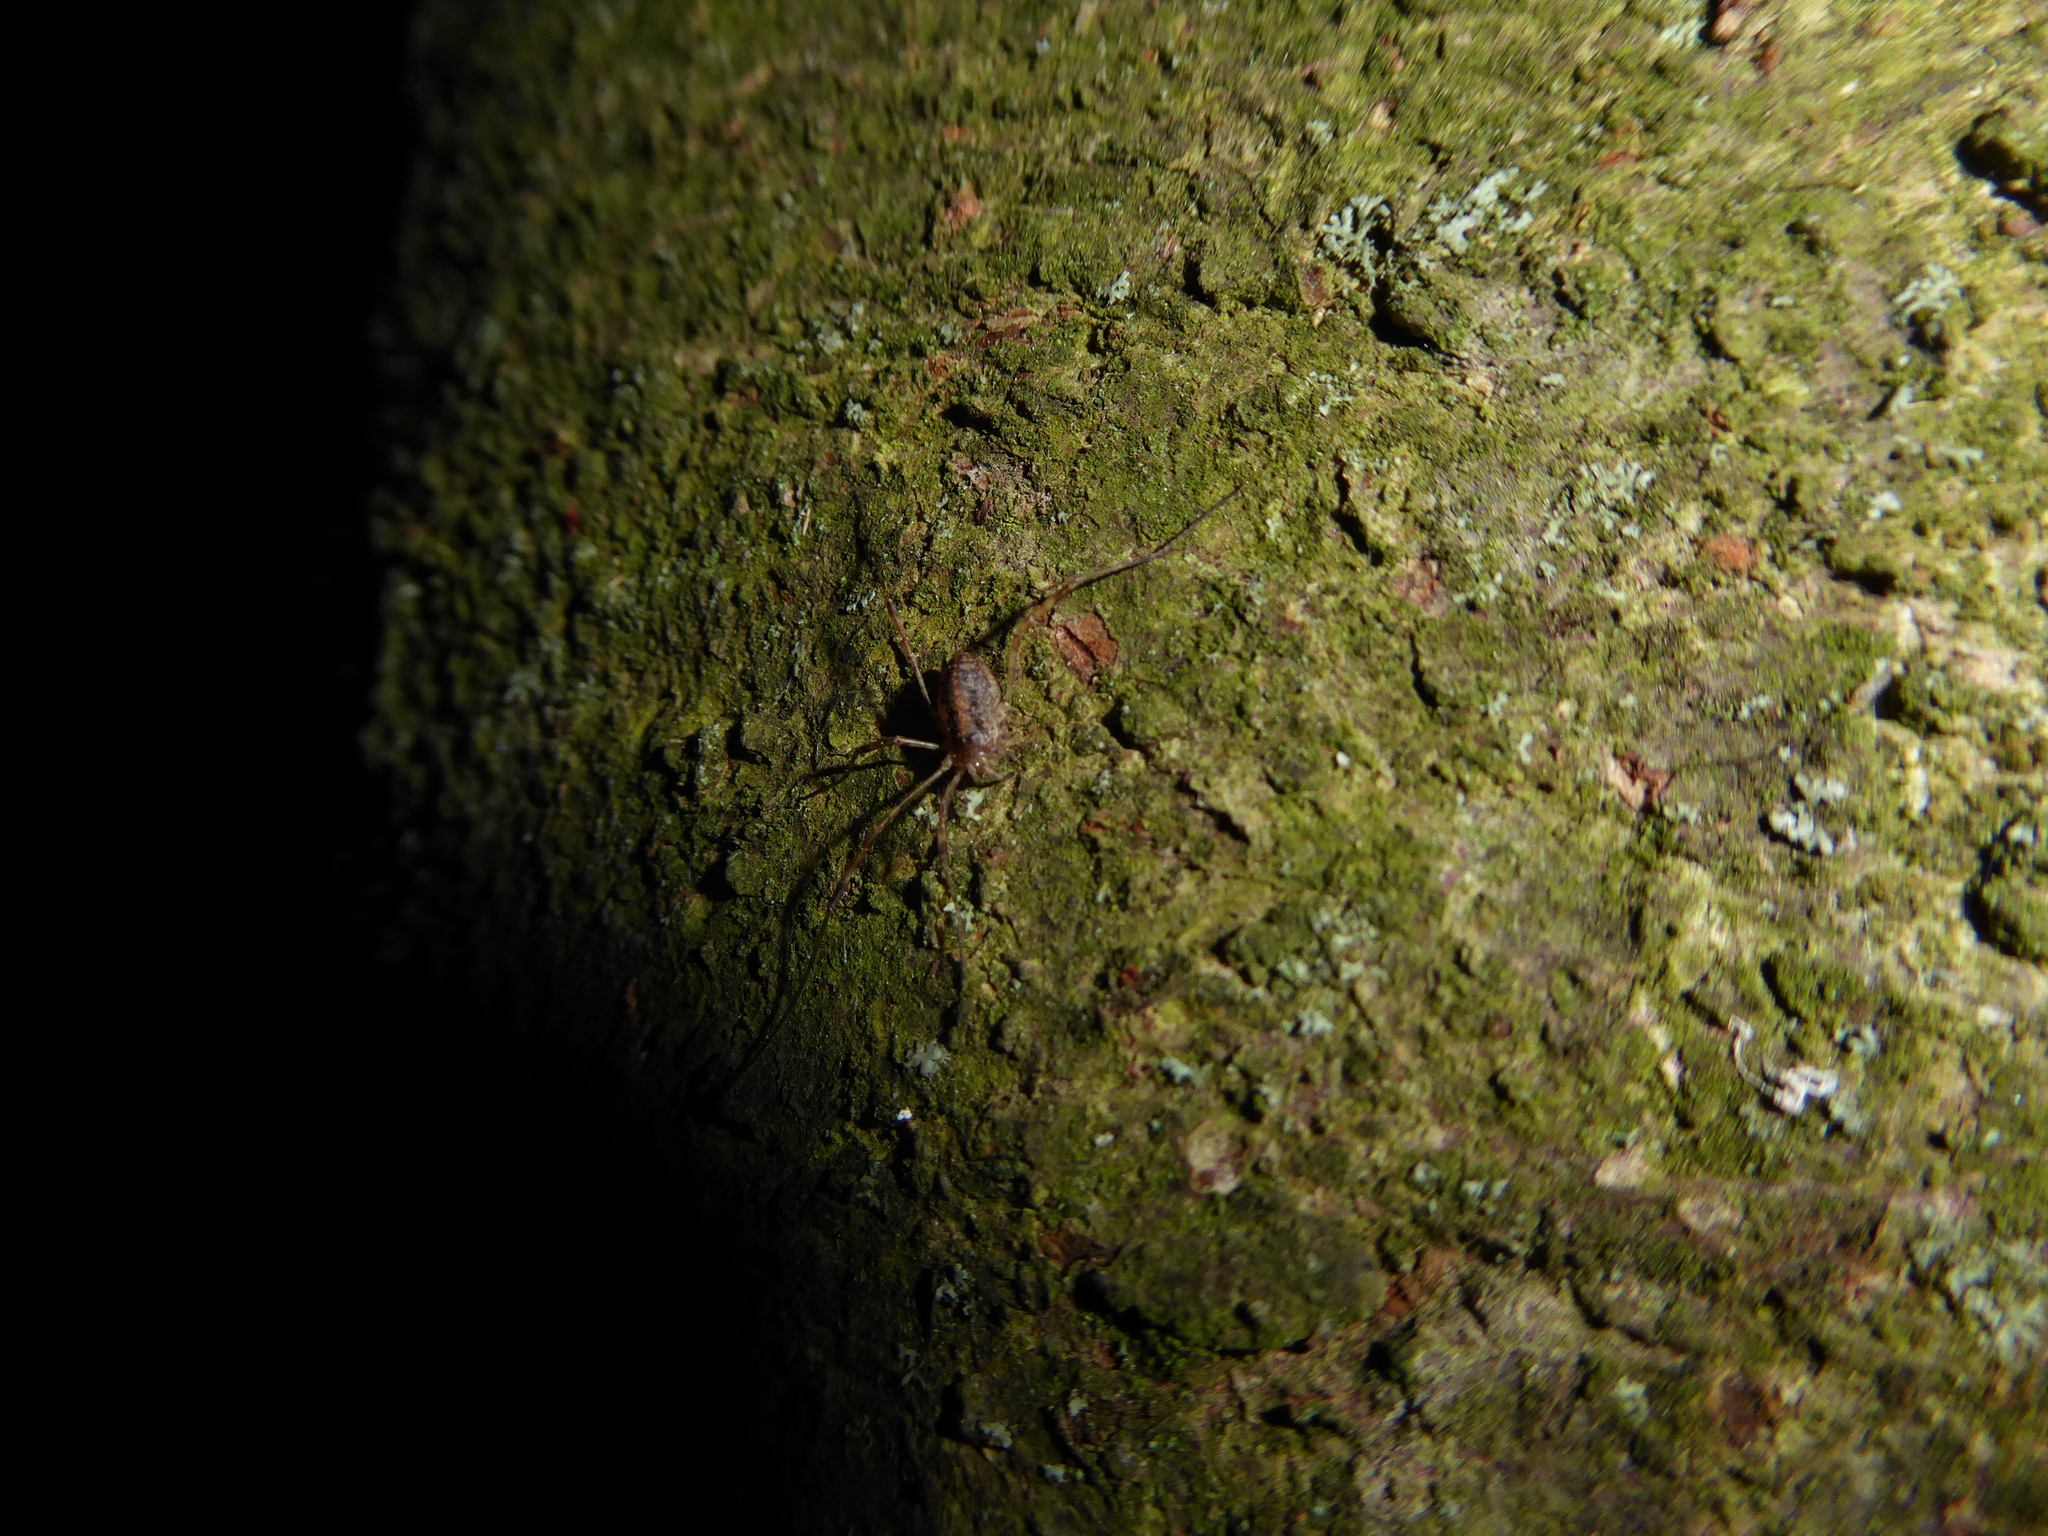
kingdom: Animalia
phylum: Arthropoda
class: Arachnida
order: Opiliones
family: Phalangiidae
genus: Paroligolophus
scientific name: Paroligolophus agrestis
